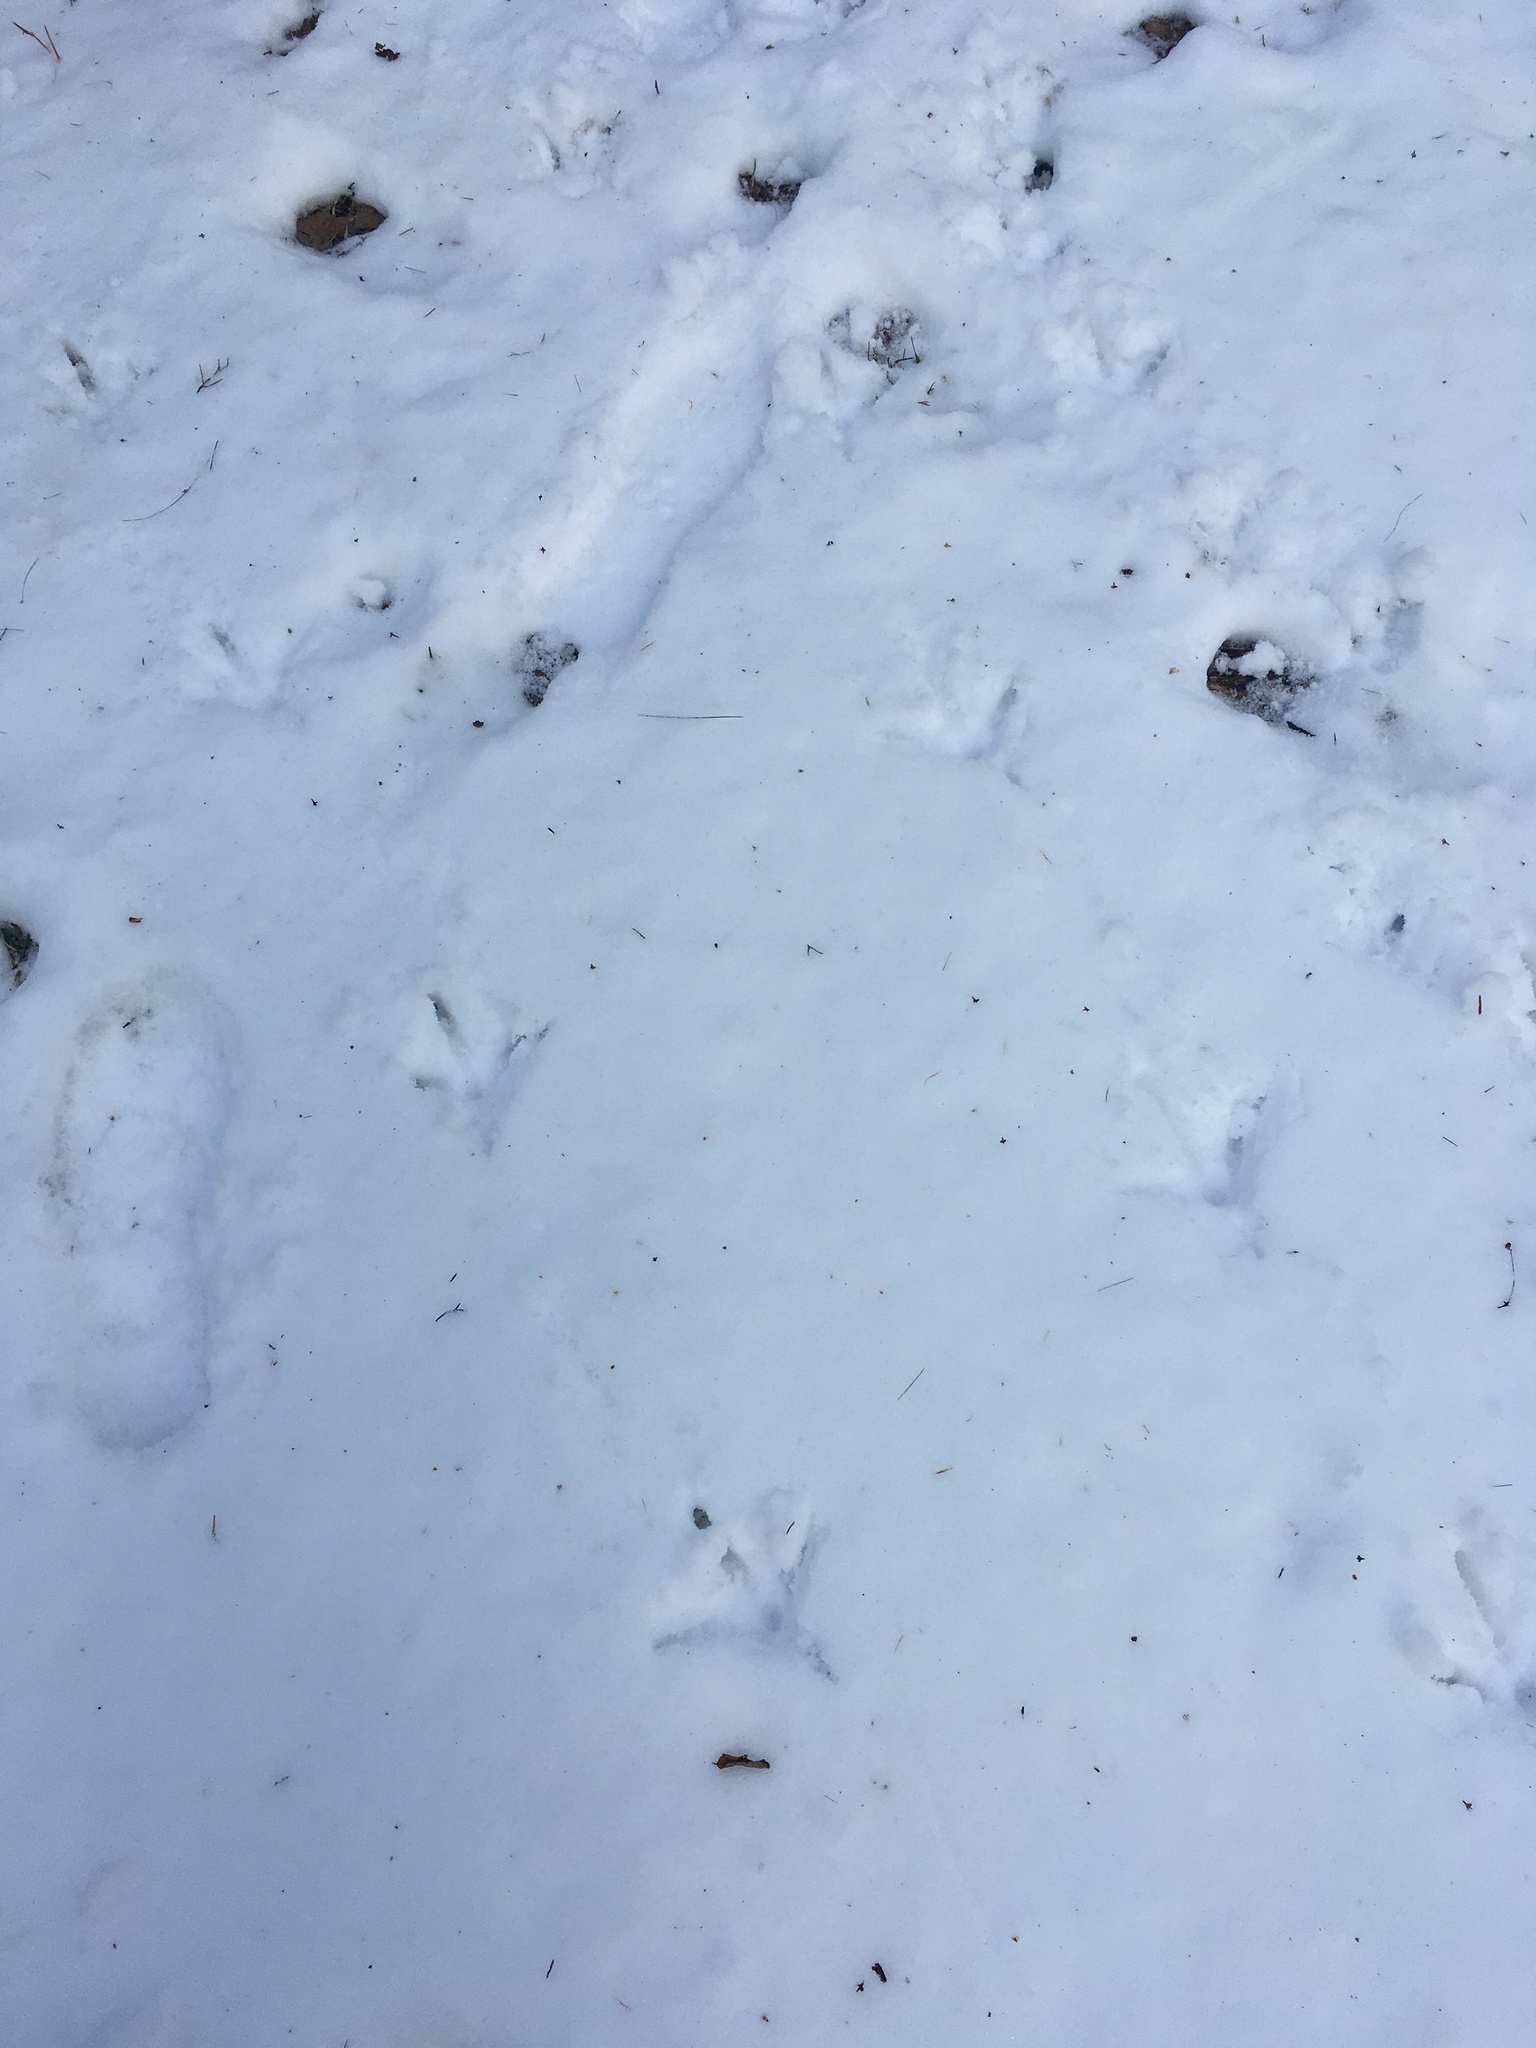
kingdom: Animalia
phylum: Chordata
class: Aves
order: Galliformes
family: Phasianidae
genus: Meleagris
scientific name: Meleagris gallopavo
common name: Wild turkey
